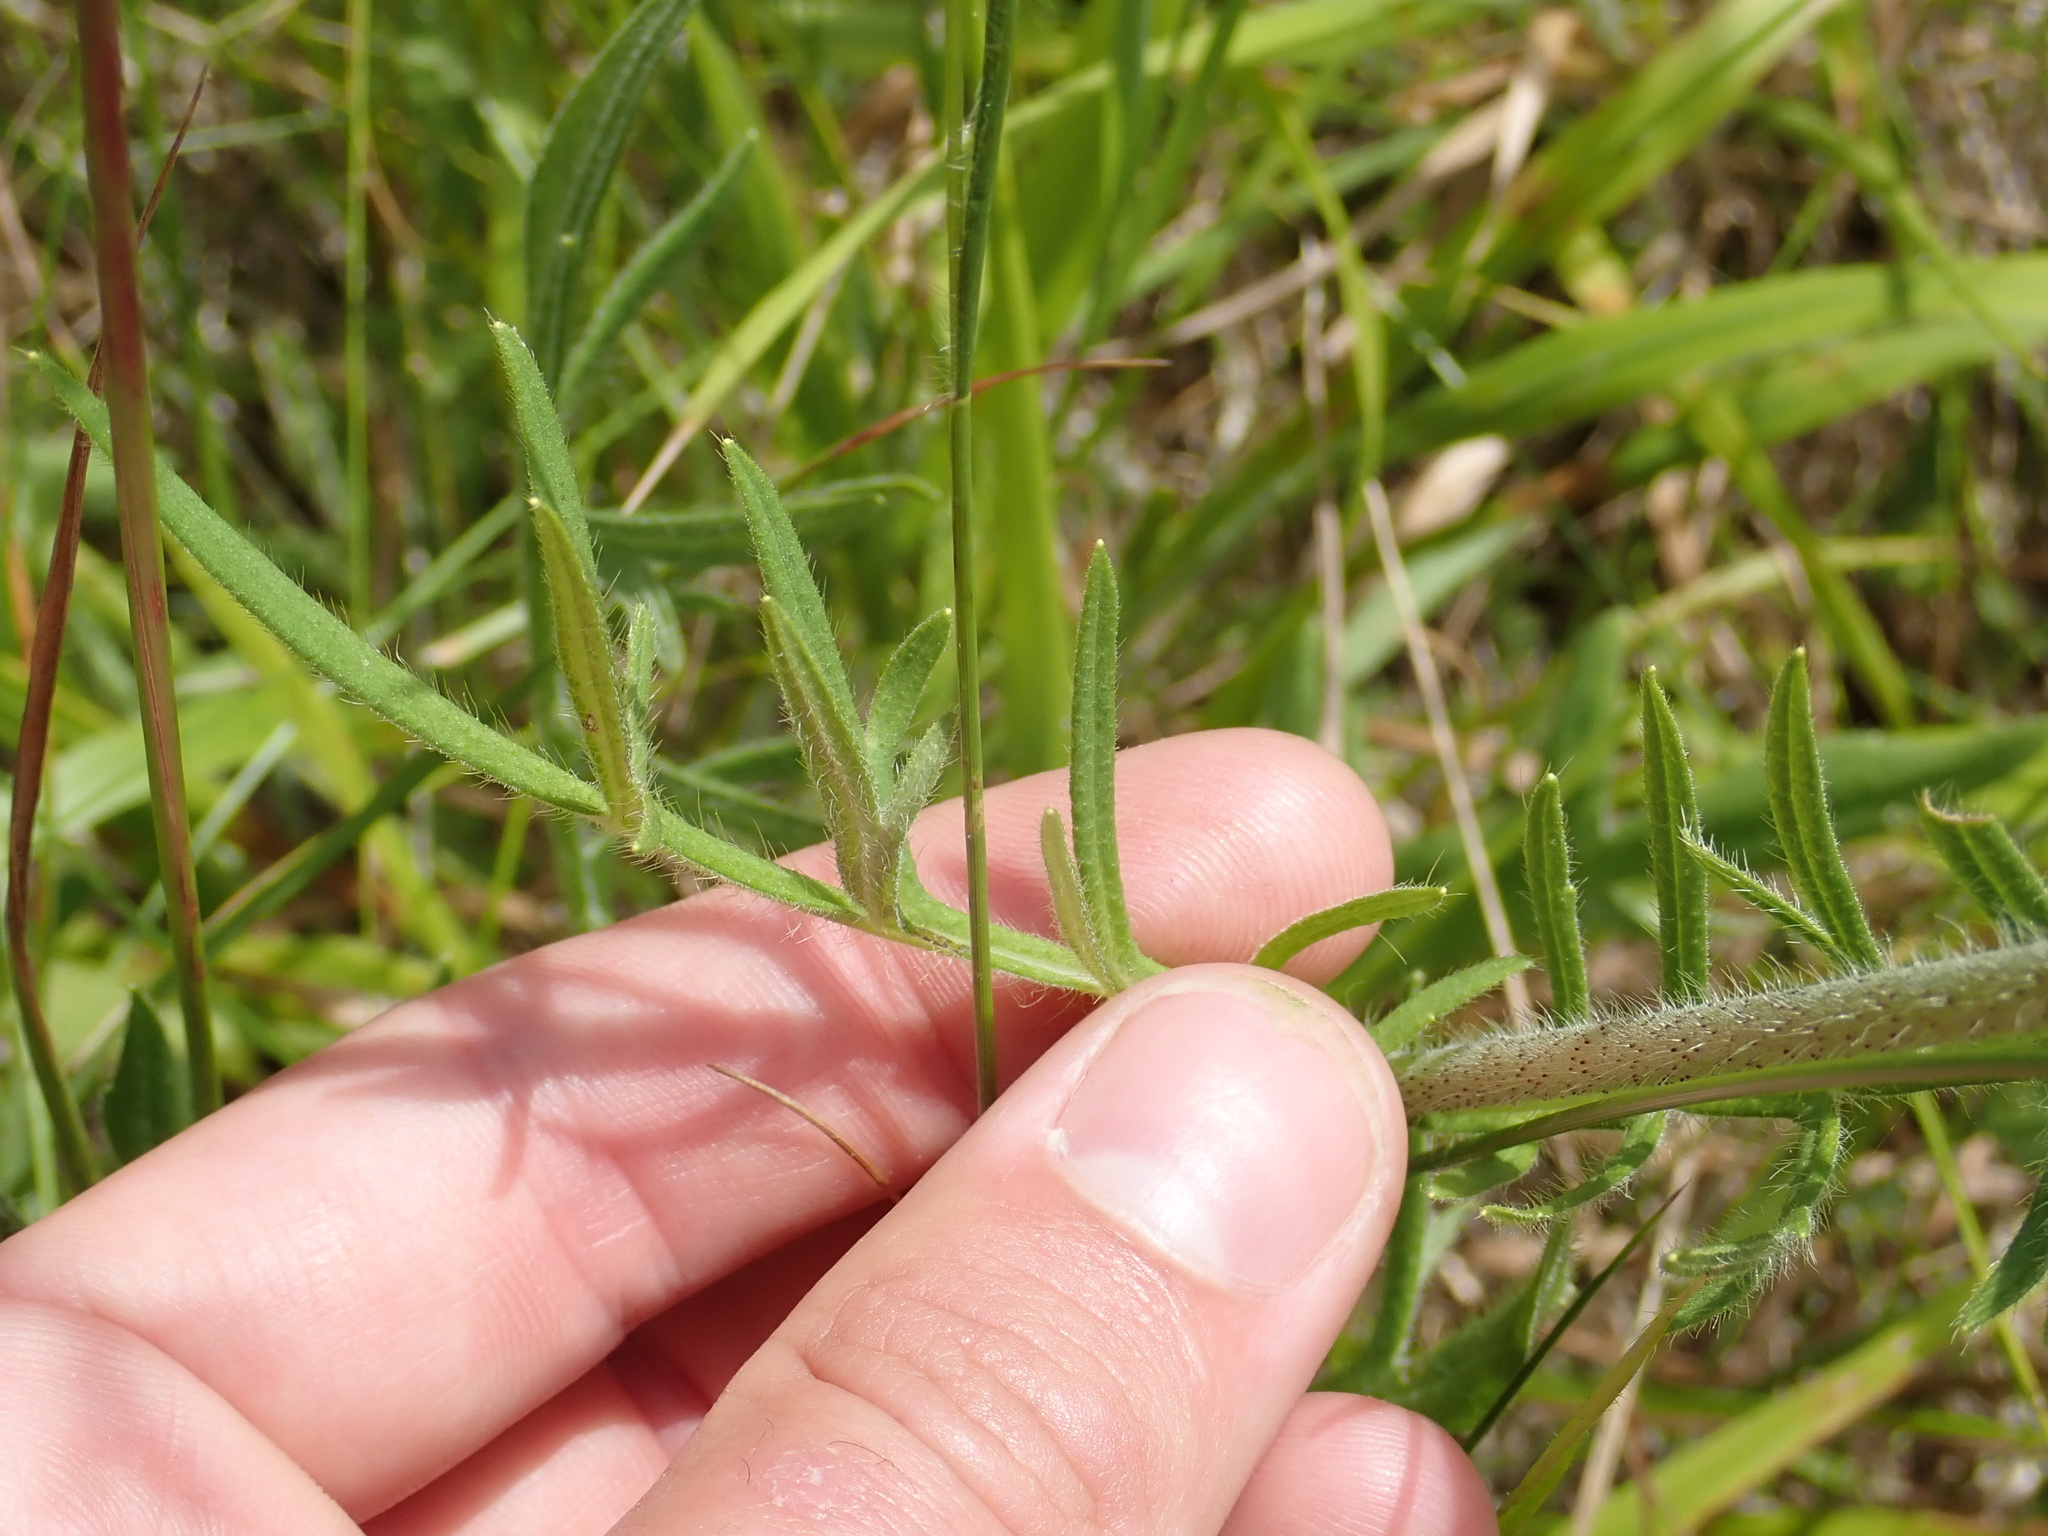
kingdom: Plantae
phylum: Tracheophyta
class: Magnoliopsida
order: Dipsacales
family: Caprifoliaceae
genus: Knautia
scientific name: Knautia arvensis
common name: Field scabiosa
